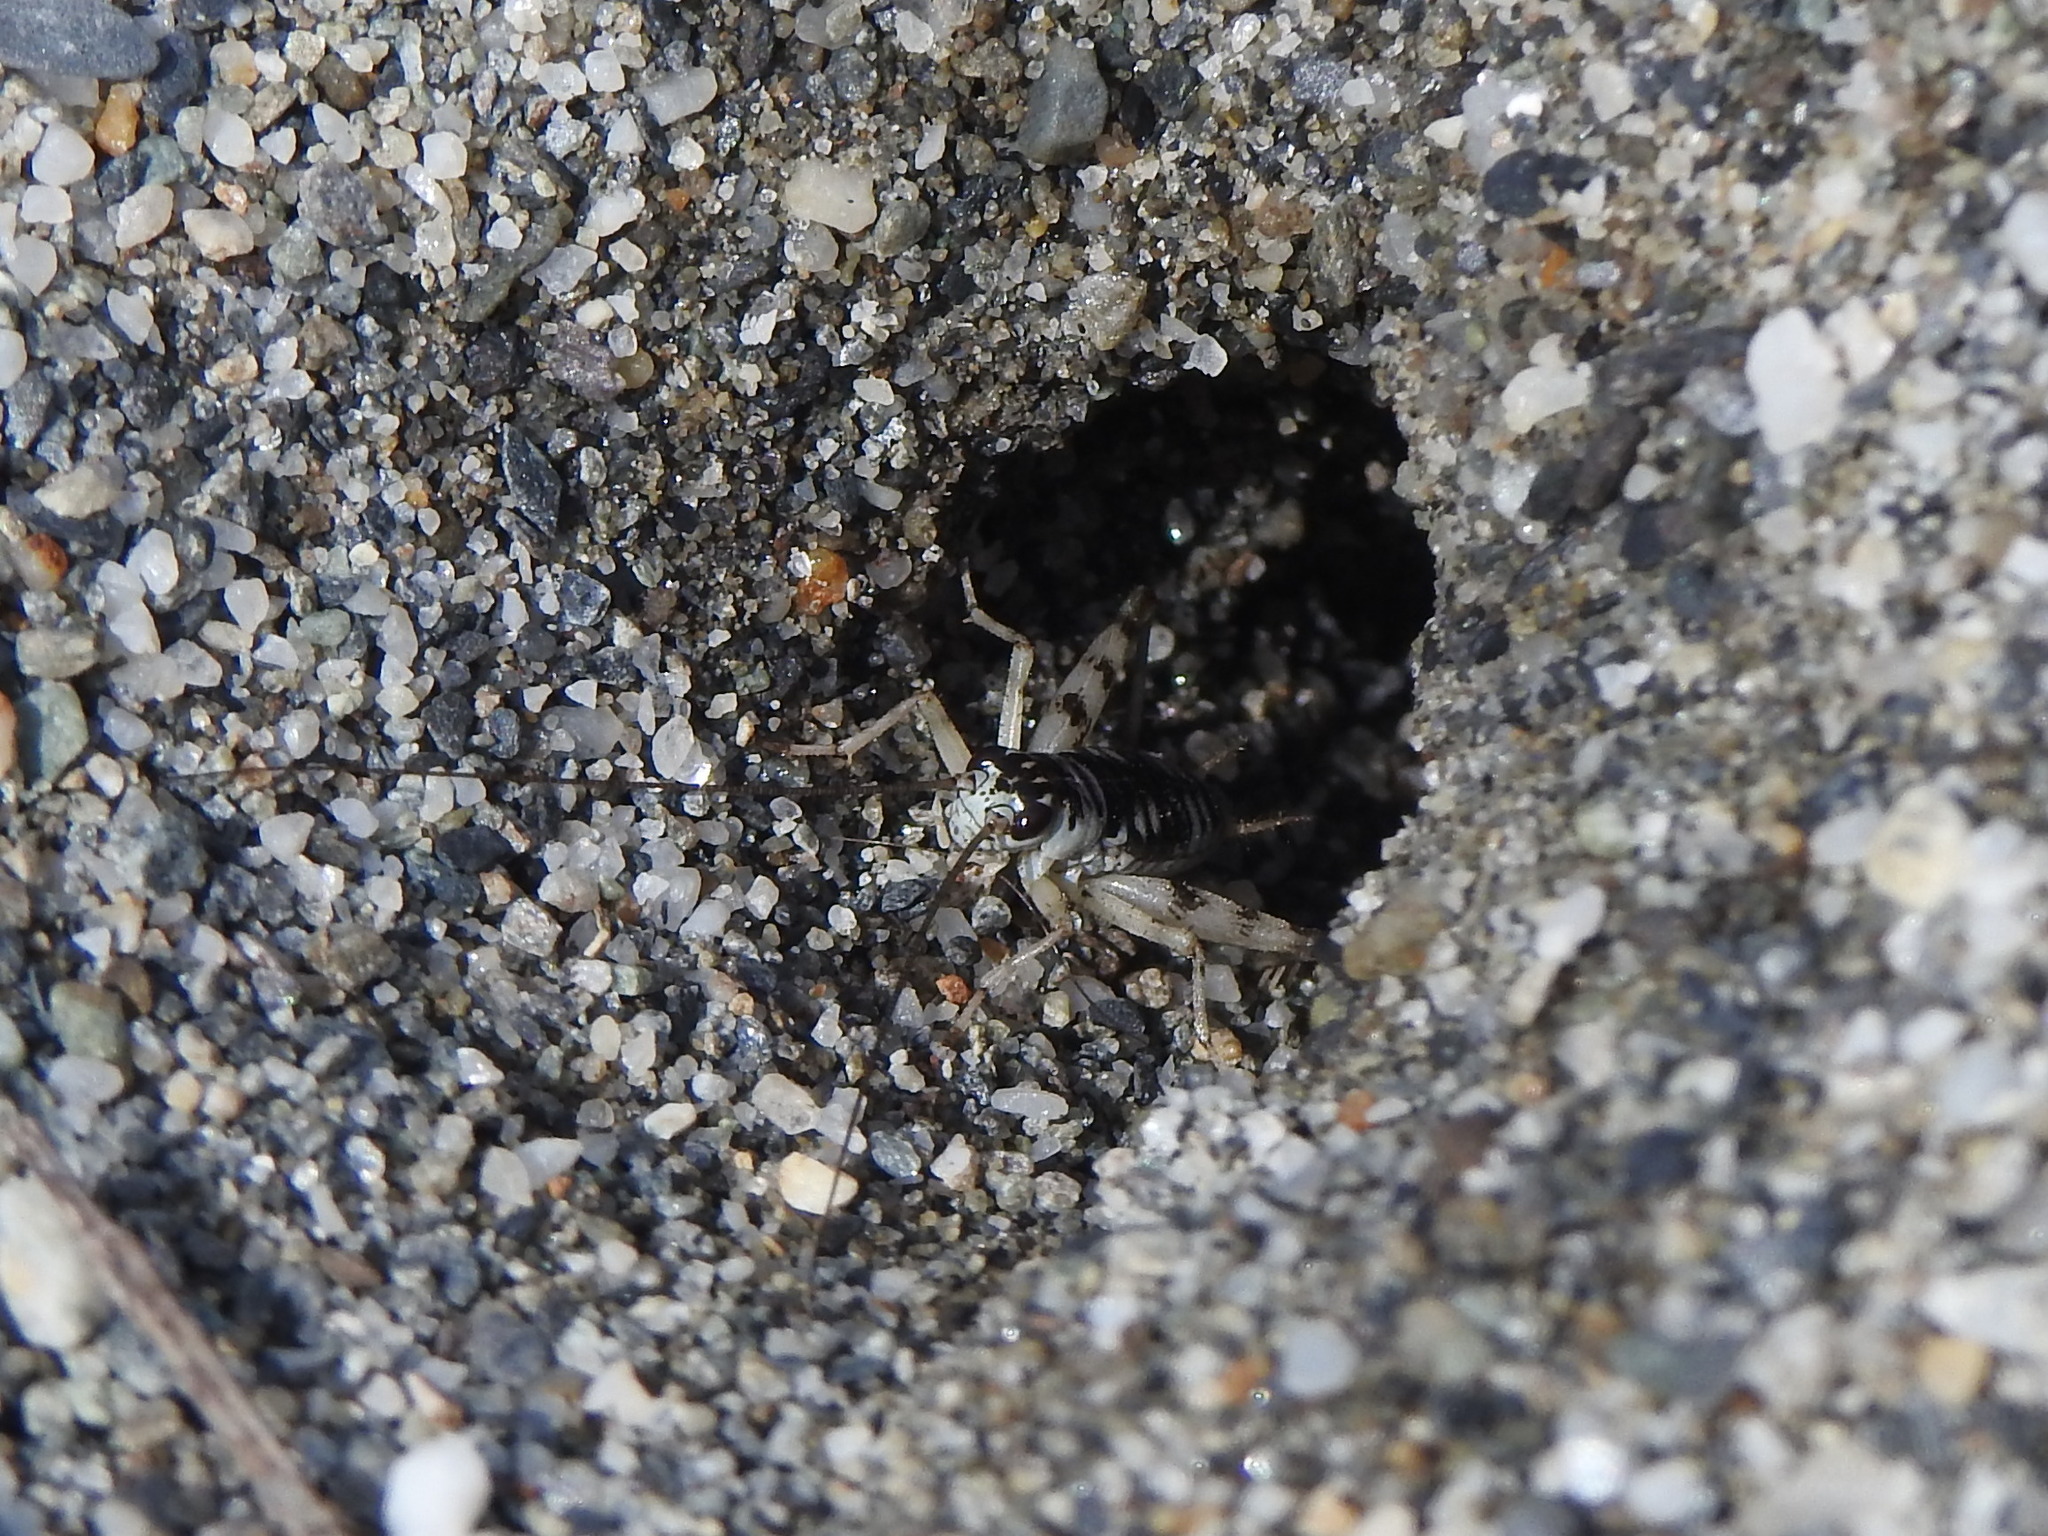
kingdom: Animalia
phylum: Arthropoda
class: Insecta
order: Orthoptera
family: Trigonidiidae
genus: Taiwanemobius
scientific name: Taiwanemobius formosanus
